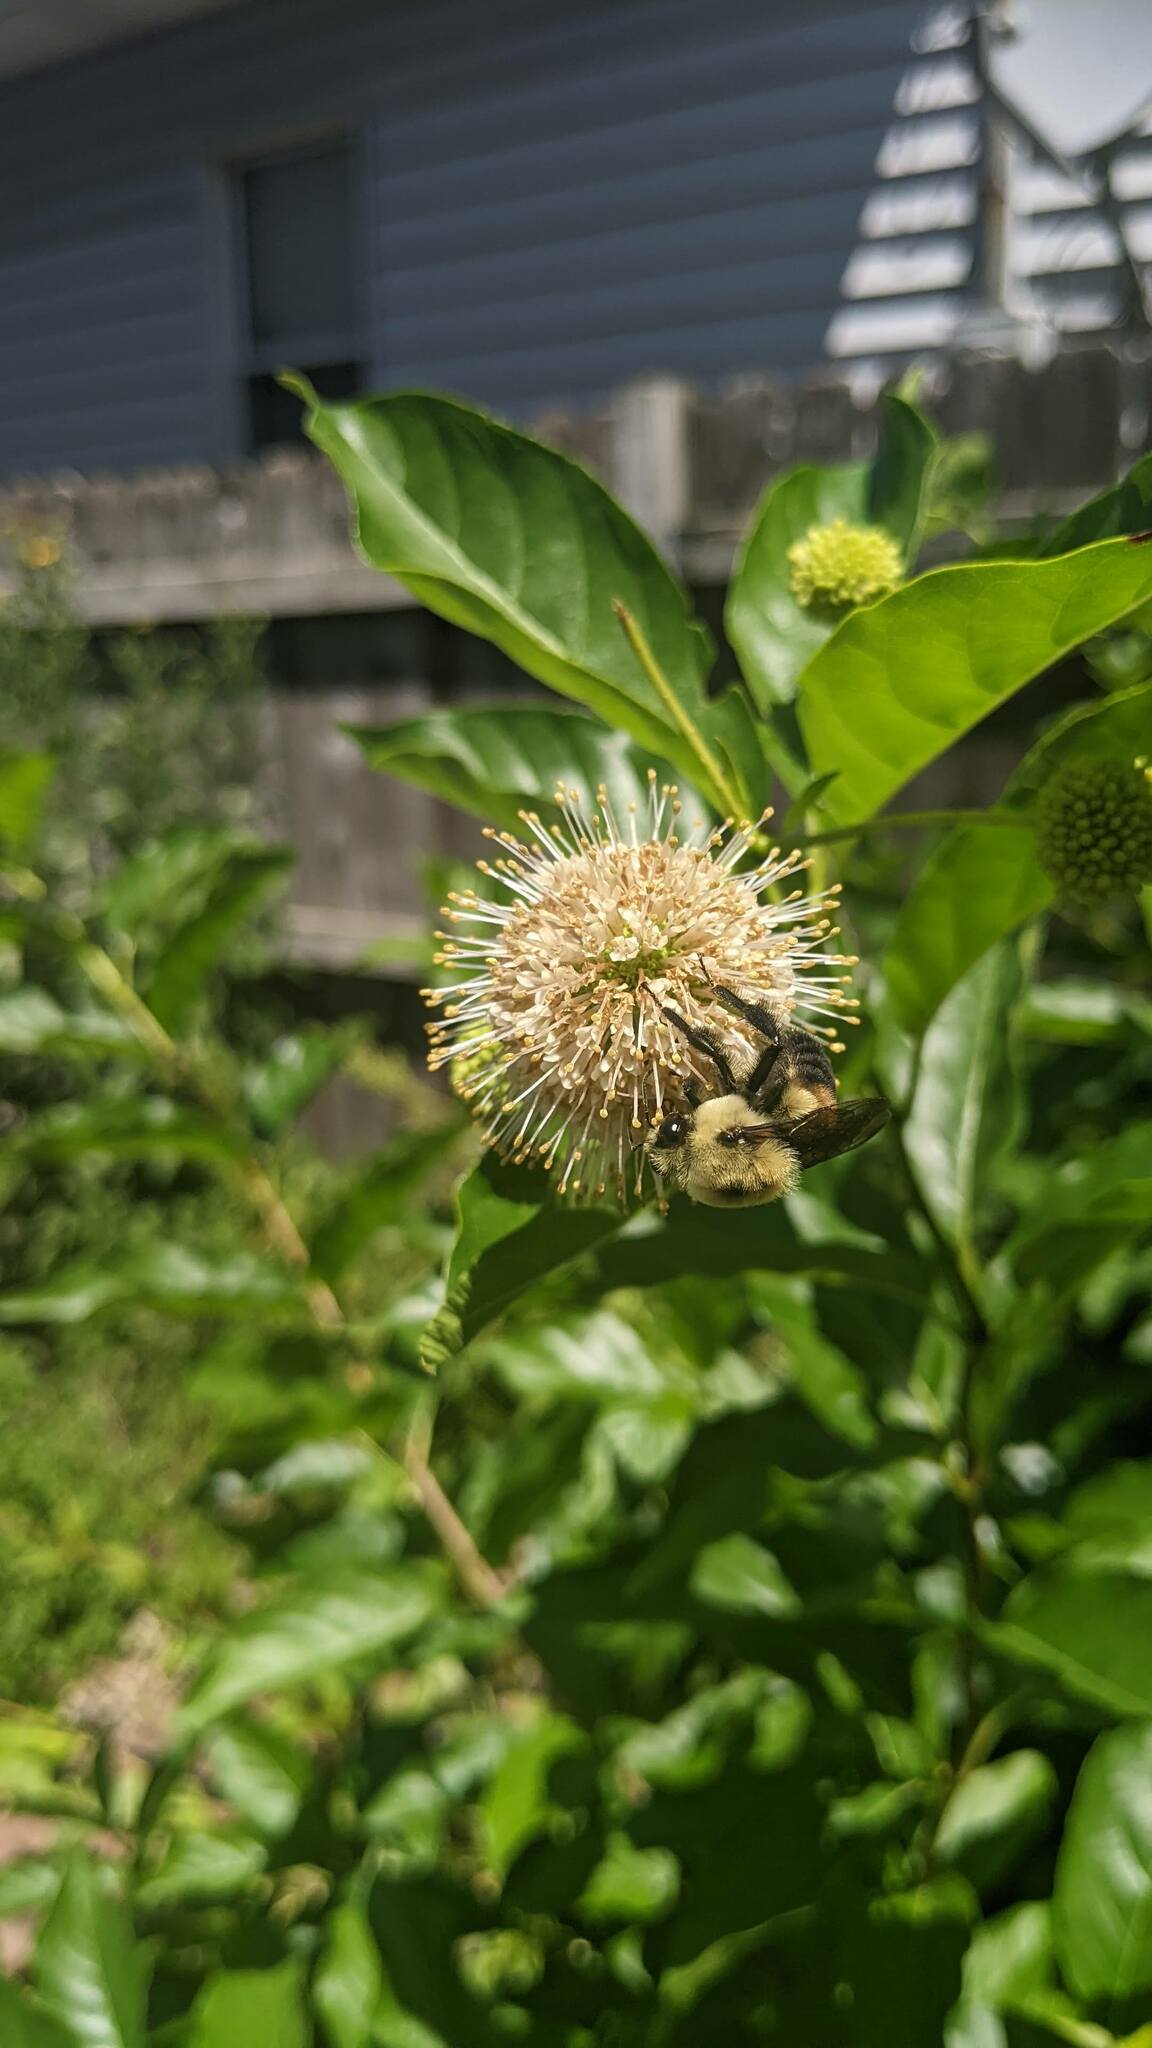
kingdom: Animalia
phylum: Arthropoda
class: Insecta
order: Hymenoptera
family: Apidae
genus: Bombus
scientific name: Bombus griseocollis
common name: Brown-belted bumble bee
